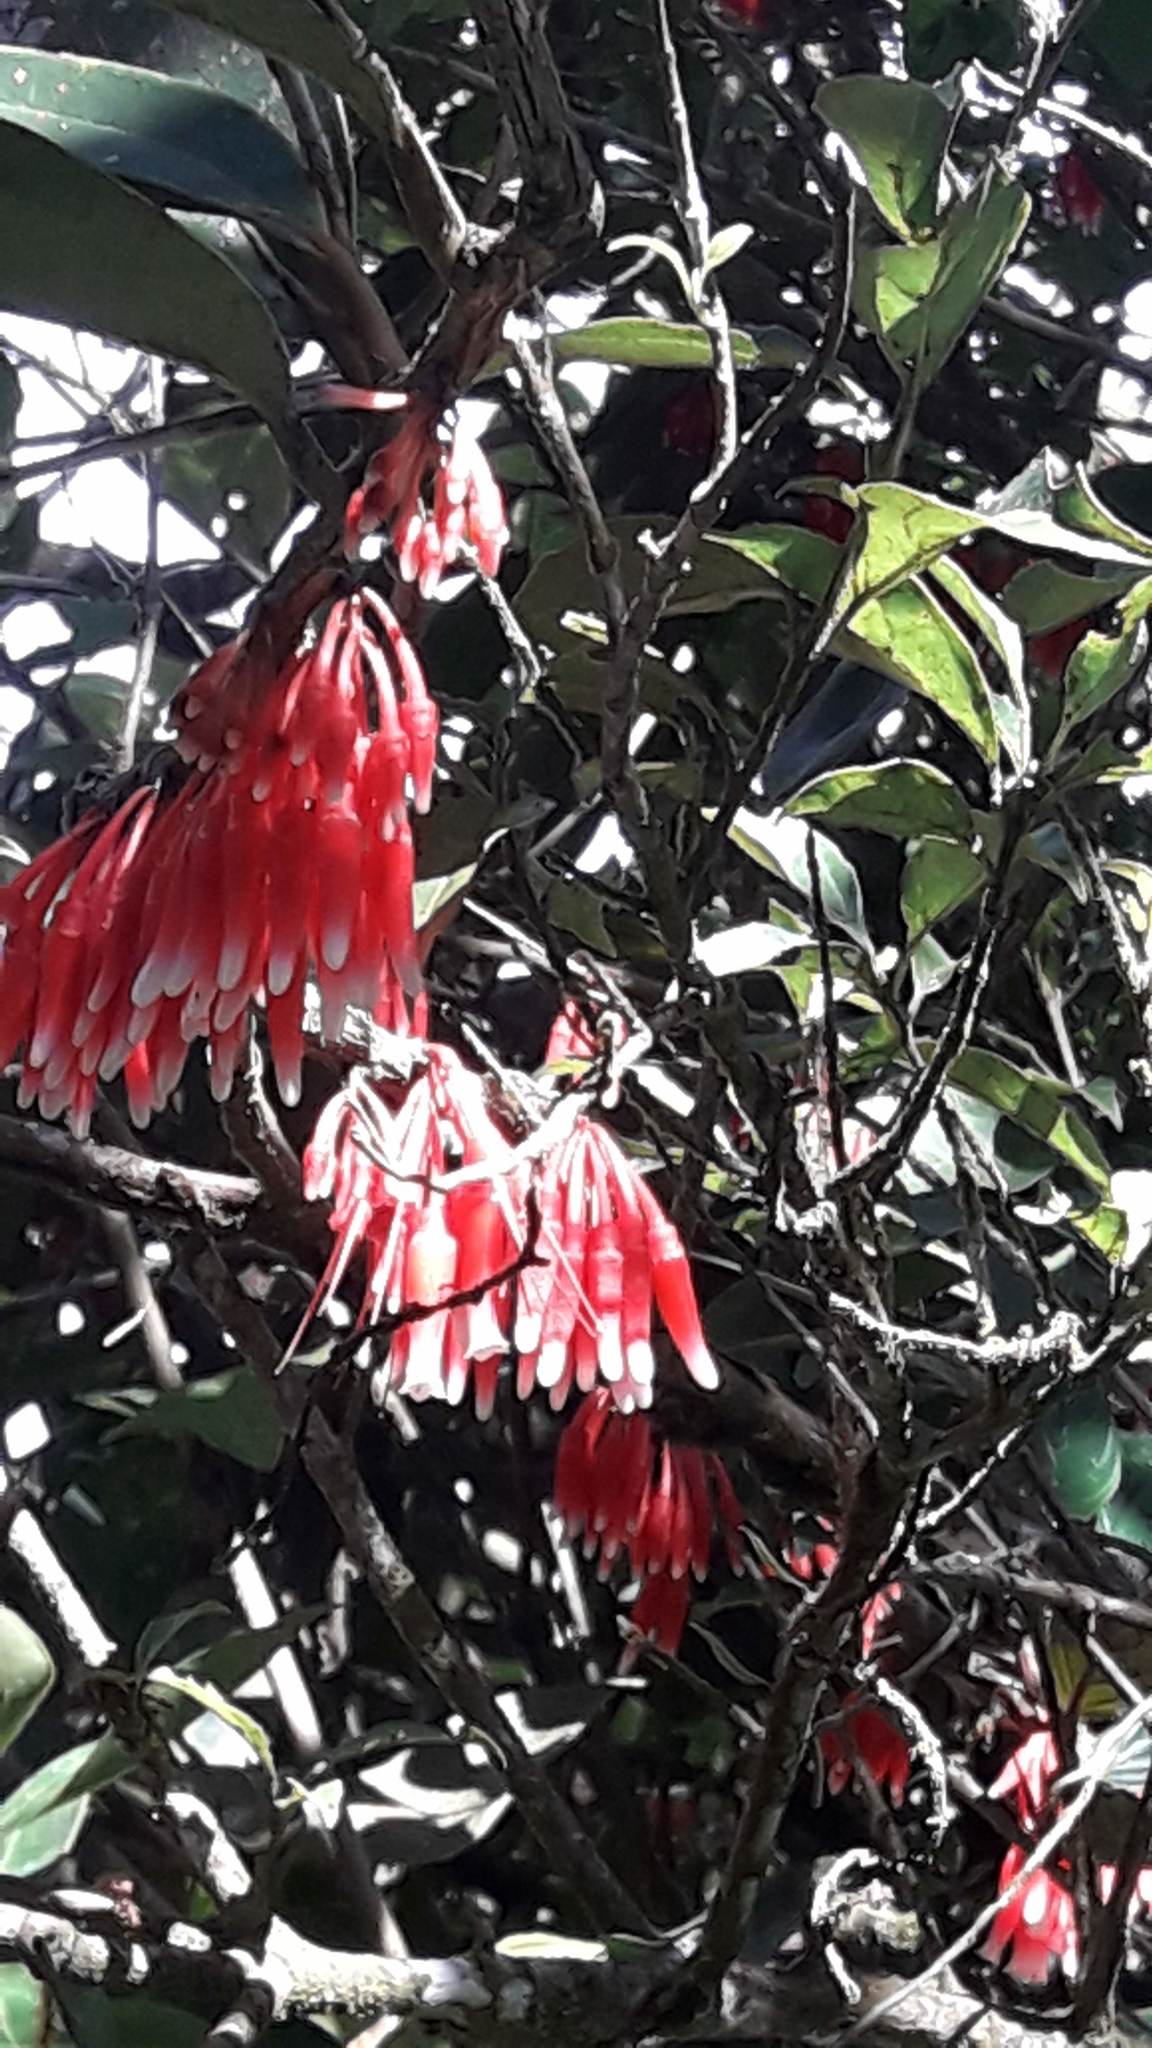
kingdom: Plantae
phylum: Tracheophyta
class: Magnoliopsida
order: Ericales
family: Ericaceae
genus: Satyria
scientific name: Satyria warszewiczii
